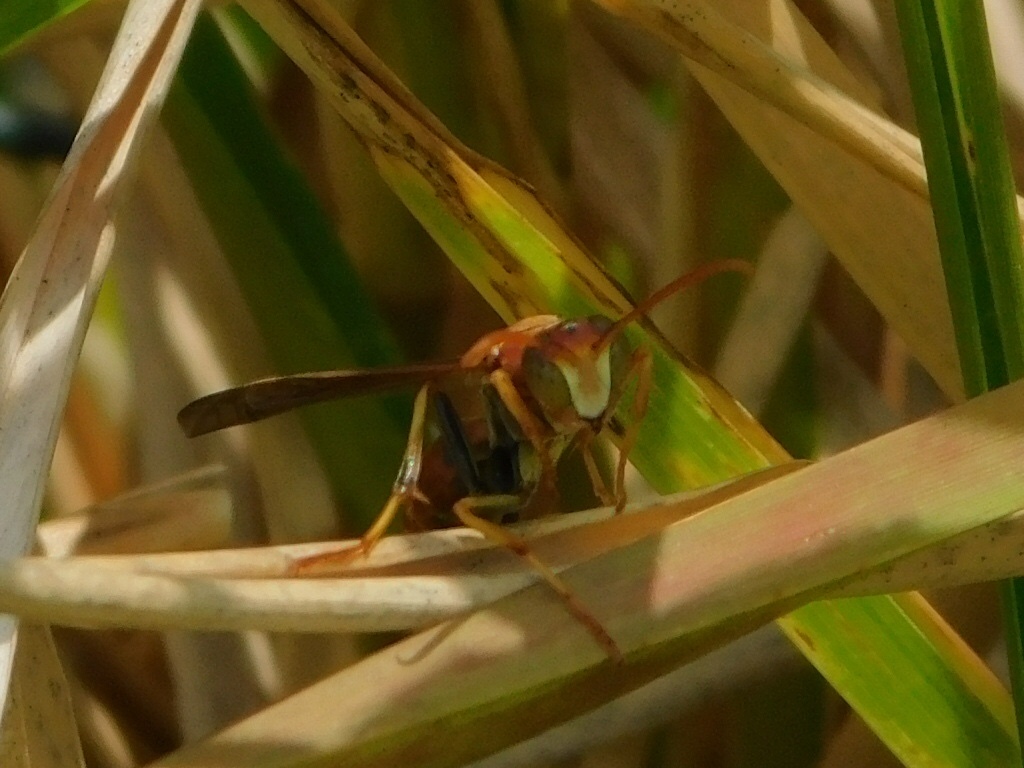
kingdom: Animalia
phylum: Arthropoda
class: Insecta
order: Hymenoptera
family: Eumenidae
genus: Polistes
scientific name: Polistes
